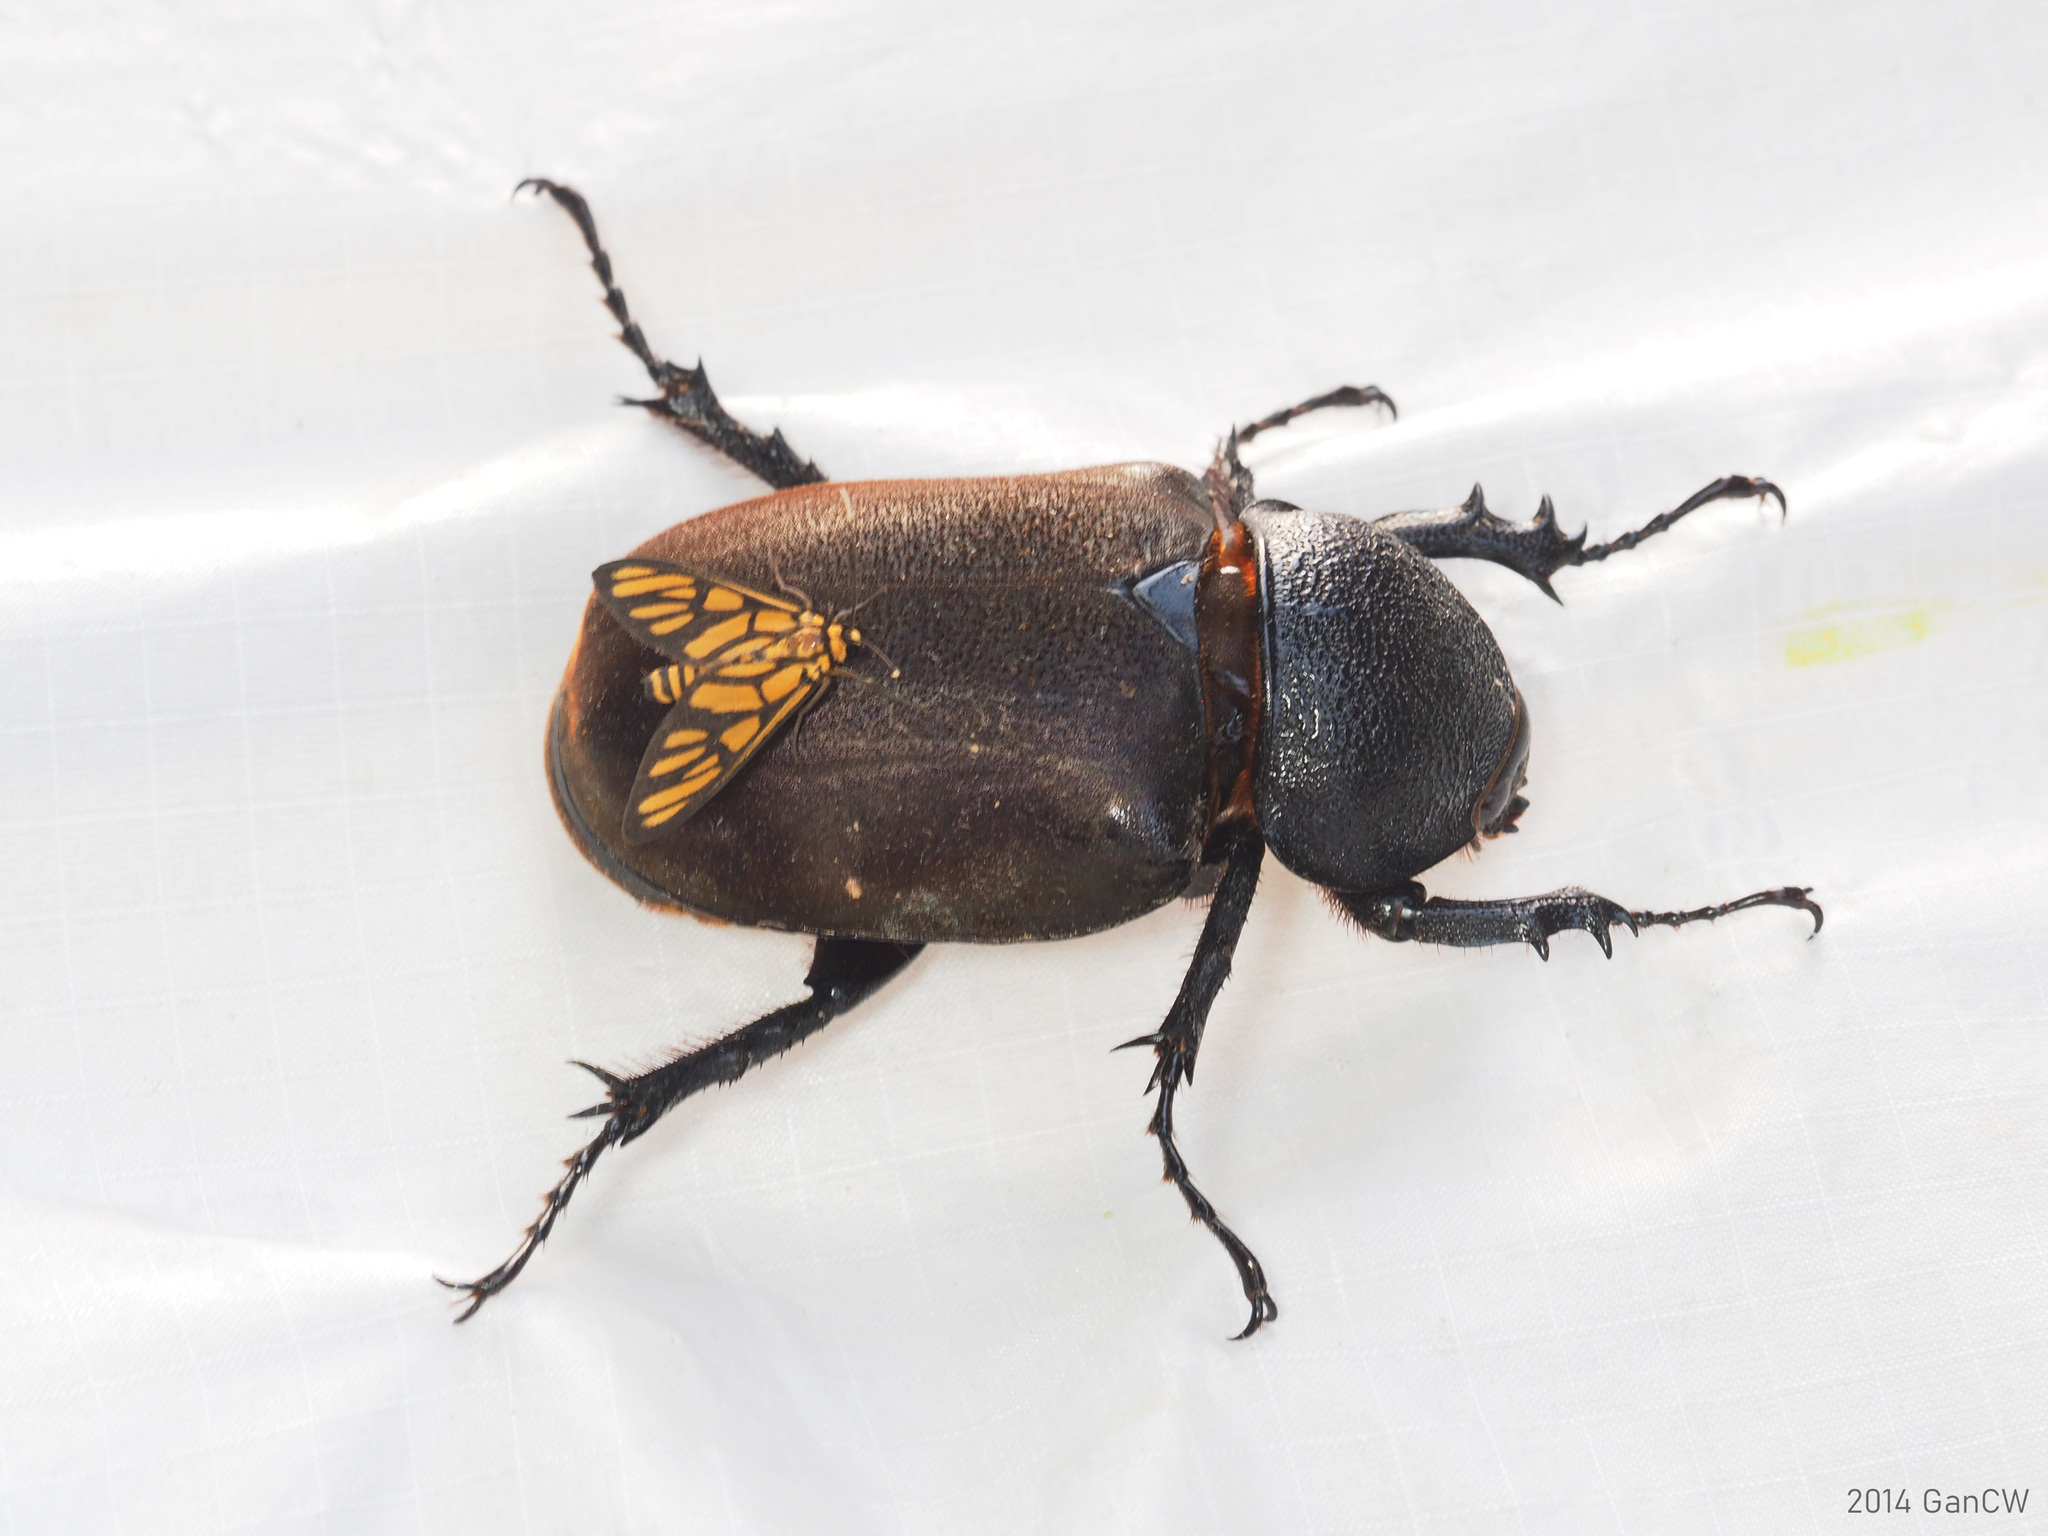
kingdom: Animalia
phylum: Arthropoda
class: Insecta
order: Coleoptera
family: Scarabaeidae
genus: Chalcosoma
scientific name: Chalcosoma chiron
